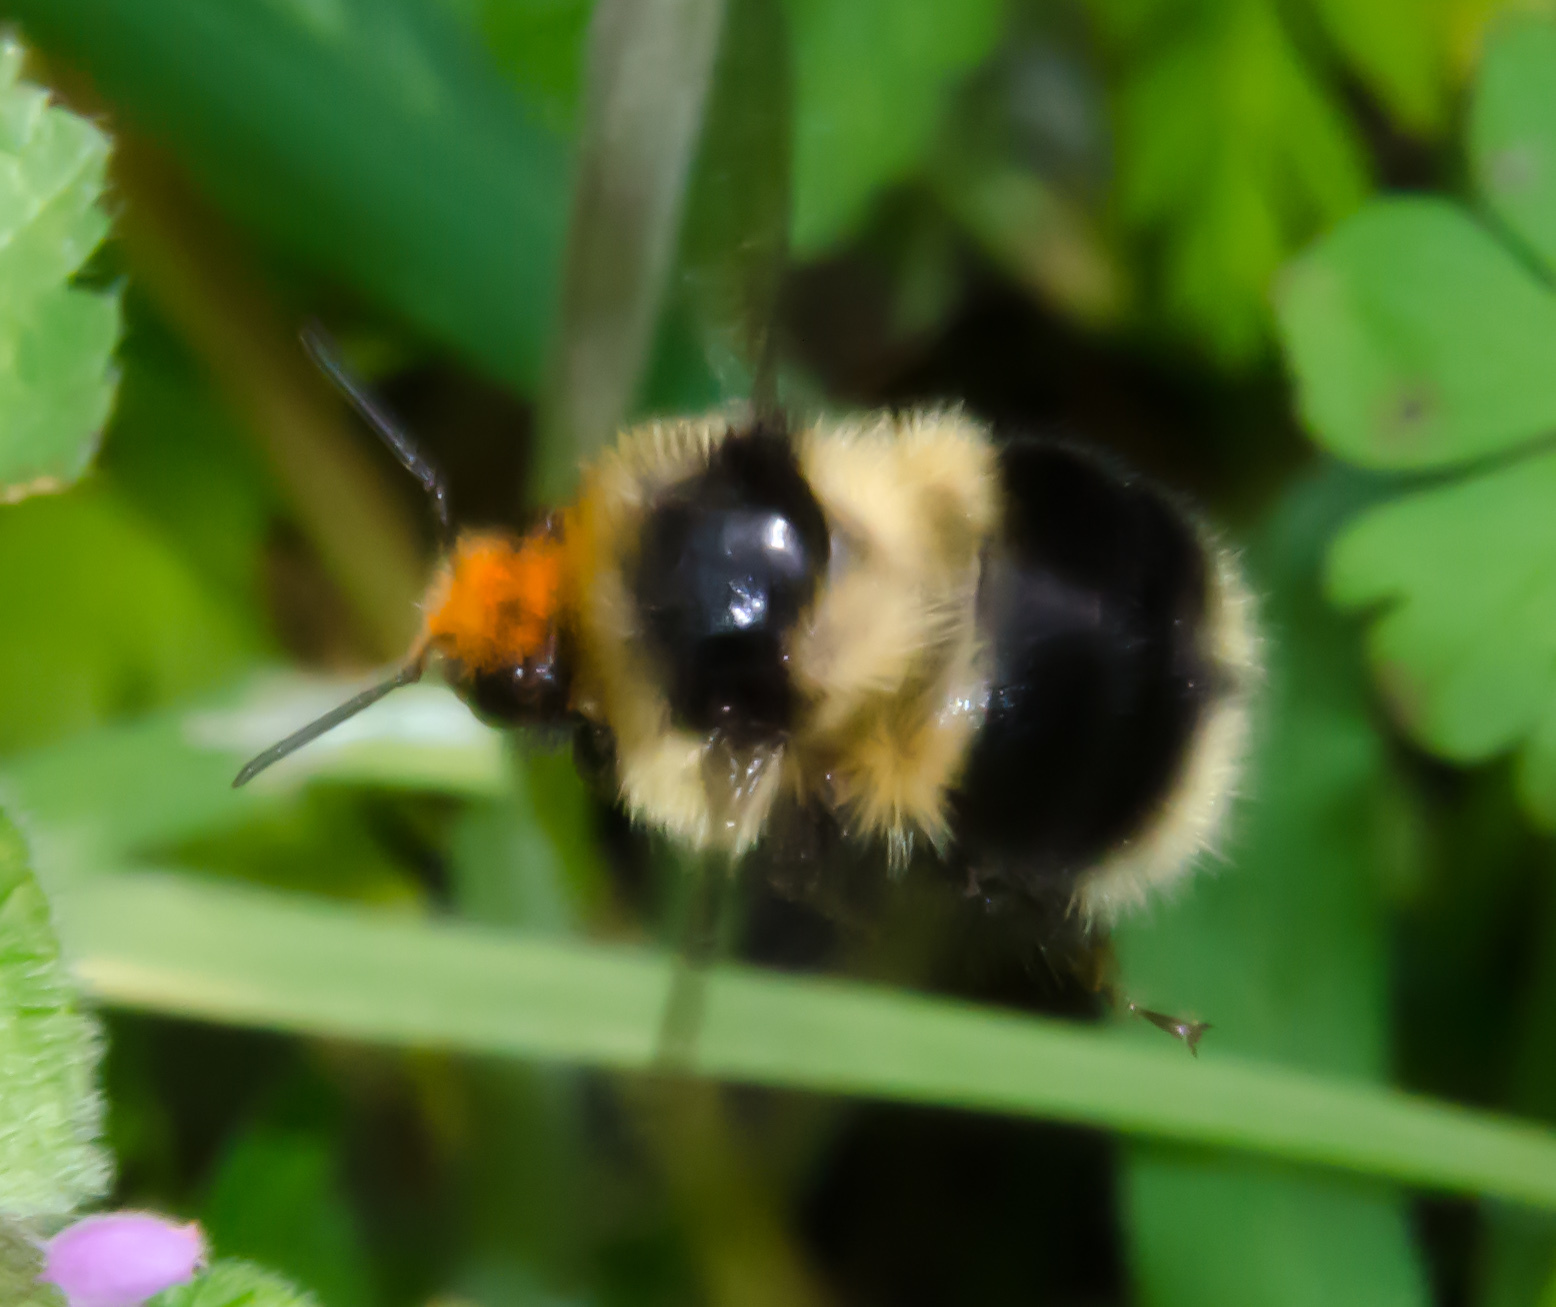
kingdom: Animalia
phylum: Arthropoda
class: Insecta
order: Hymenoptera
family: Apidae
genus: Bombus
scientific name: Bombus melanopygus
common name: Black tail bumble bee
